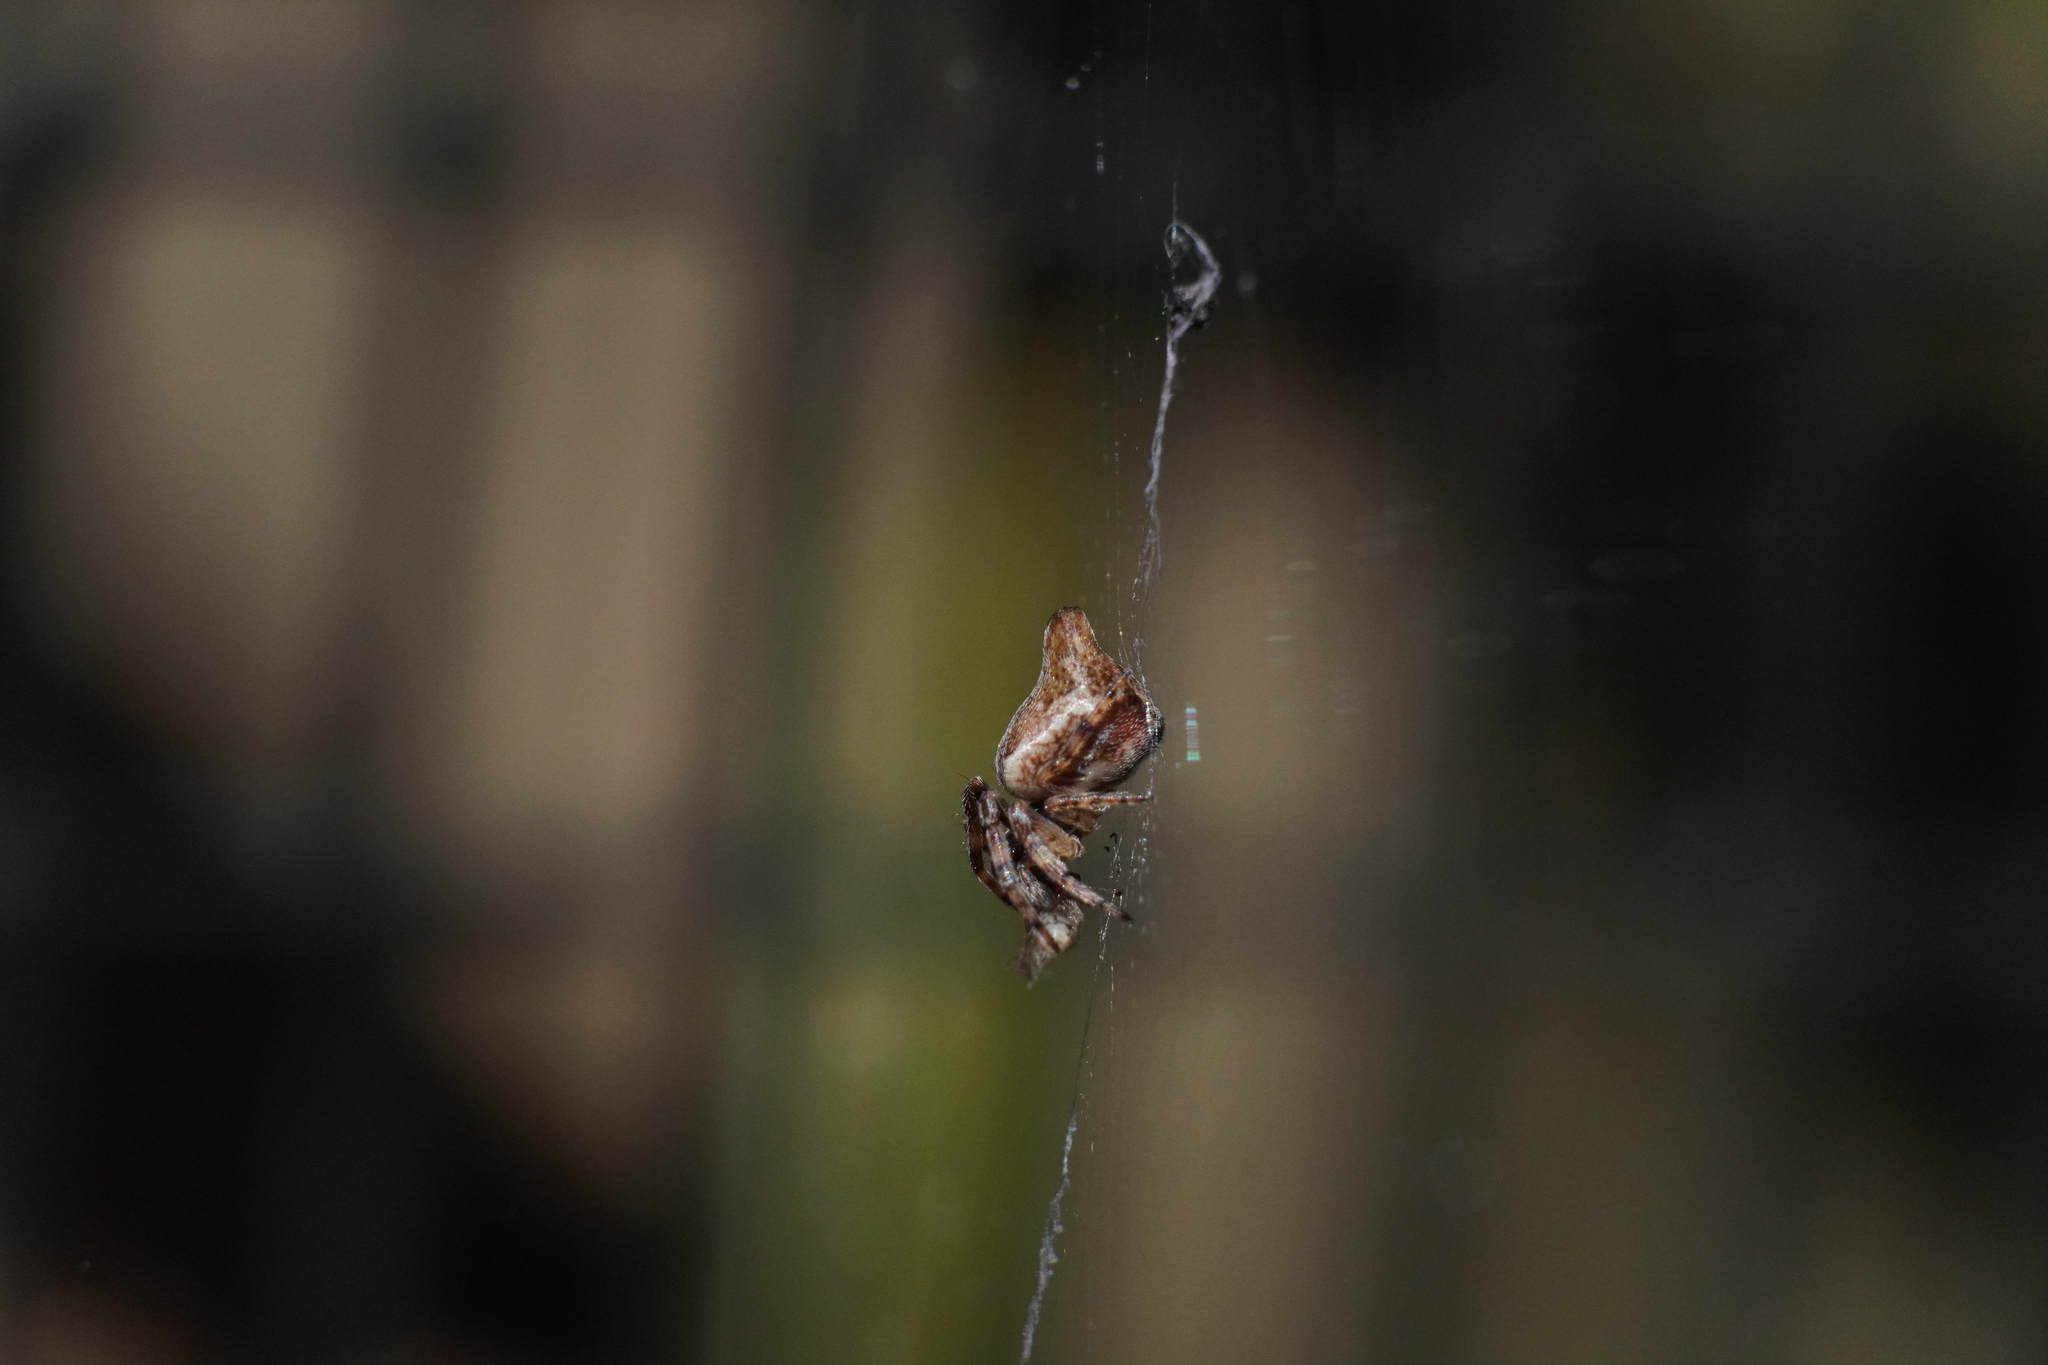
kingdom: Animalia
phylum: Arthropoda
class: Arachnida
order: Araneae
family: Araneidae
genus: Cyclosa
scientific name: Cyclosa conica
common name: Conical trashline orbweaver
